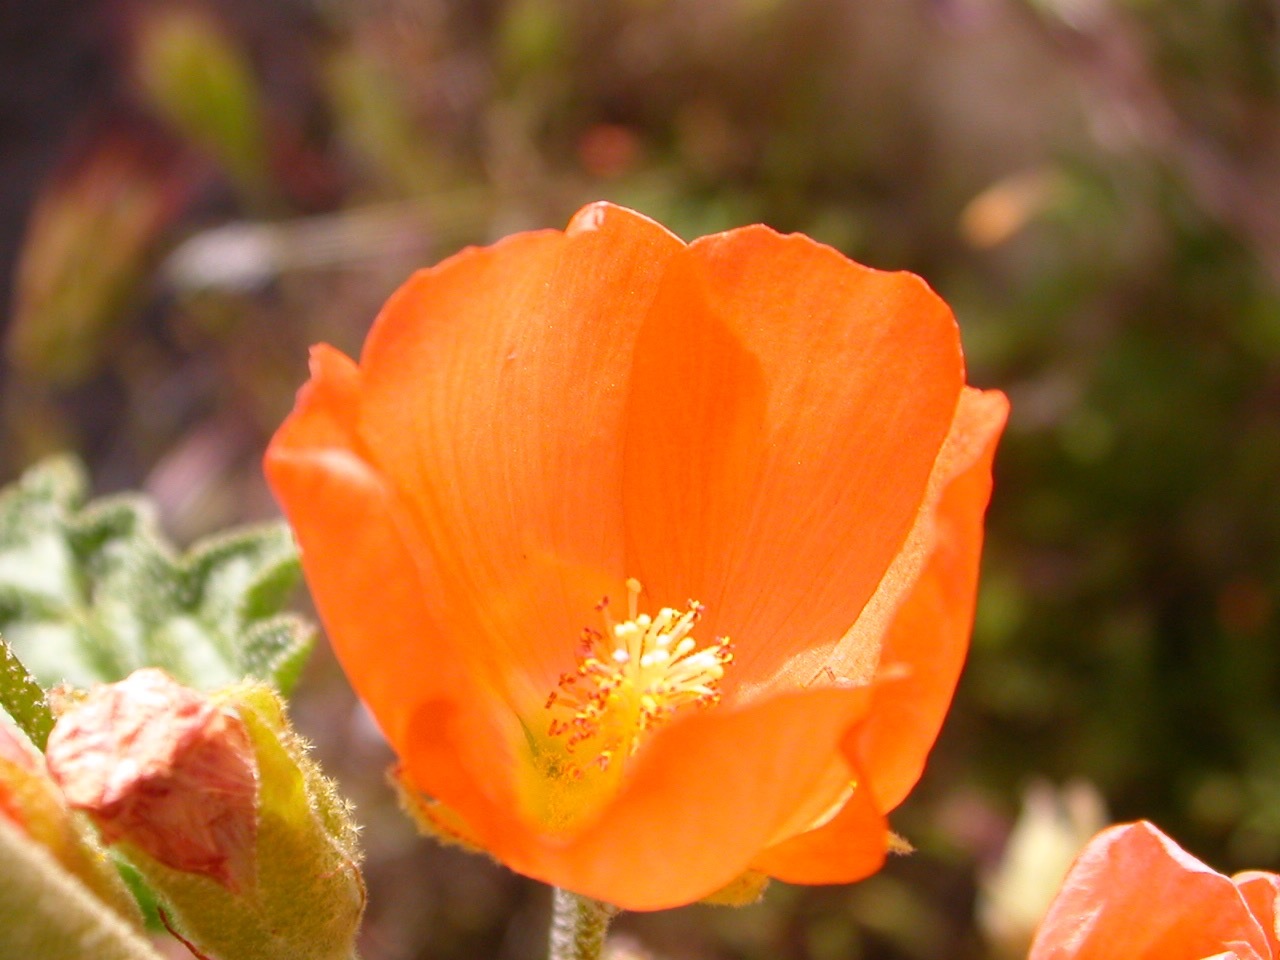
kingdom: Plantae
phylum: Tracheophyta
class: Magnoliopsida
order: Malvales
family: Malvaceae
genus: Sphaeralcea
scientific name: Sphaeralcea ambigua
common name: Apricot globe-mallow
